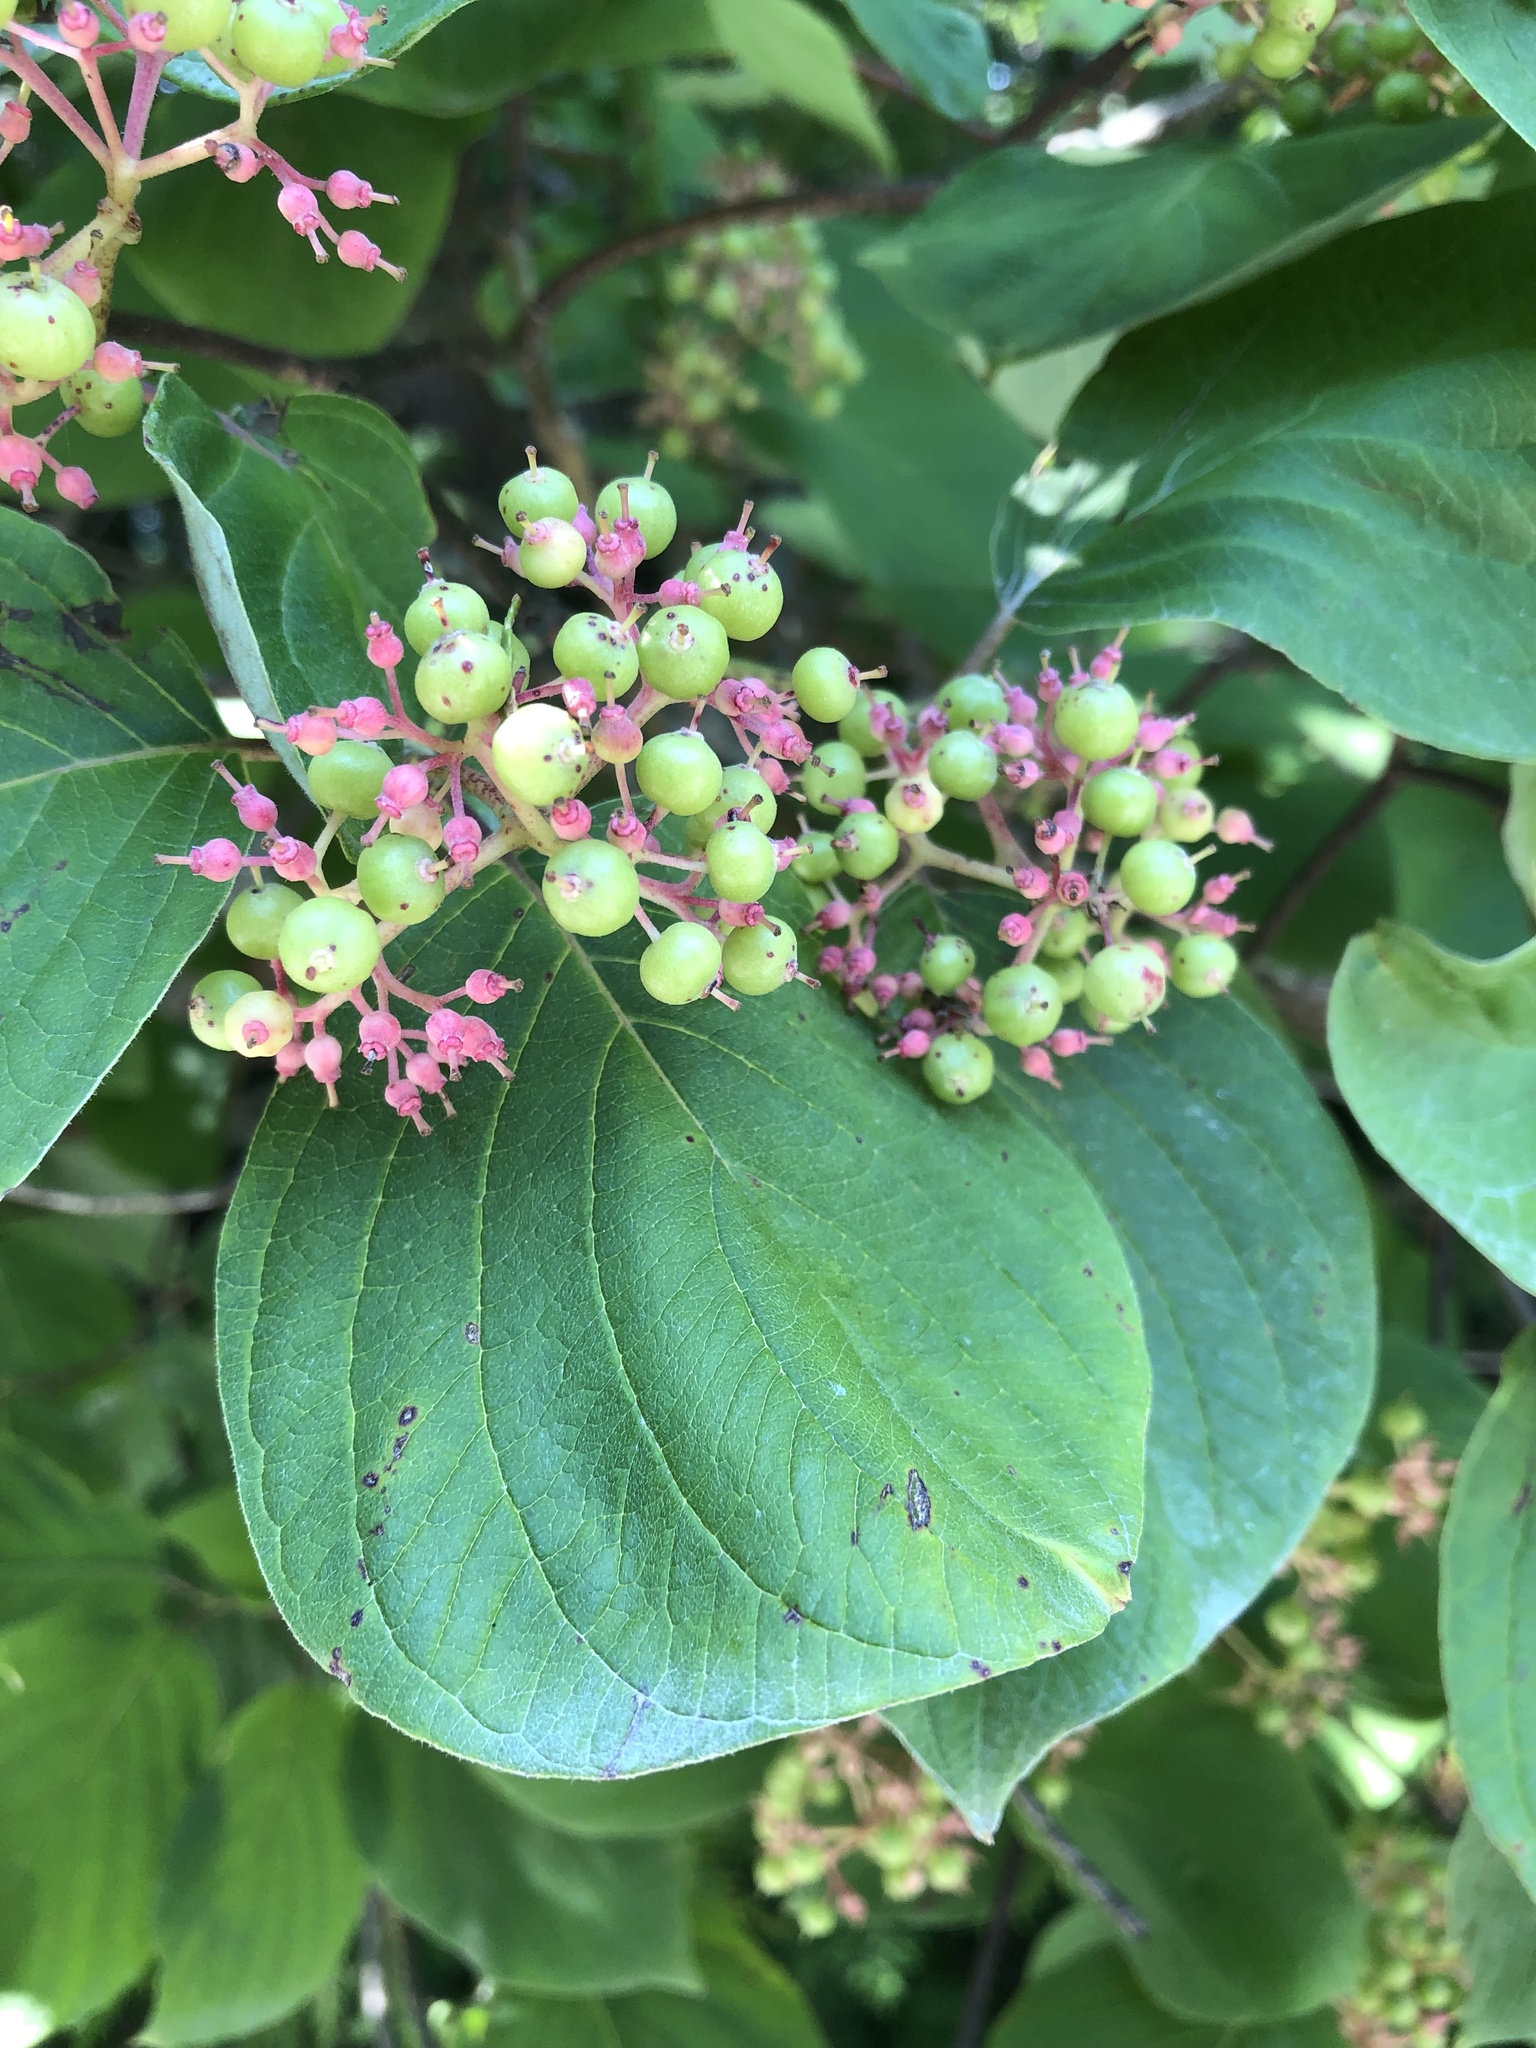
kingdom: Plantae
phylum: Tracheophyta
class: Magnoliopsida
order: Cornales
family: Cornaceae
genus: Cornus
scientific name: Cornus rugosa
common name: Round-leaf dogwood
